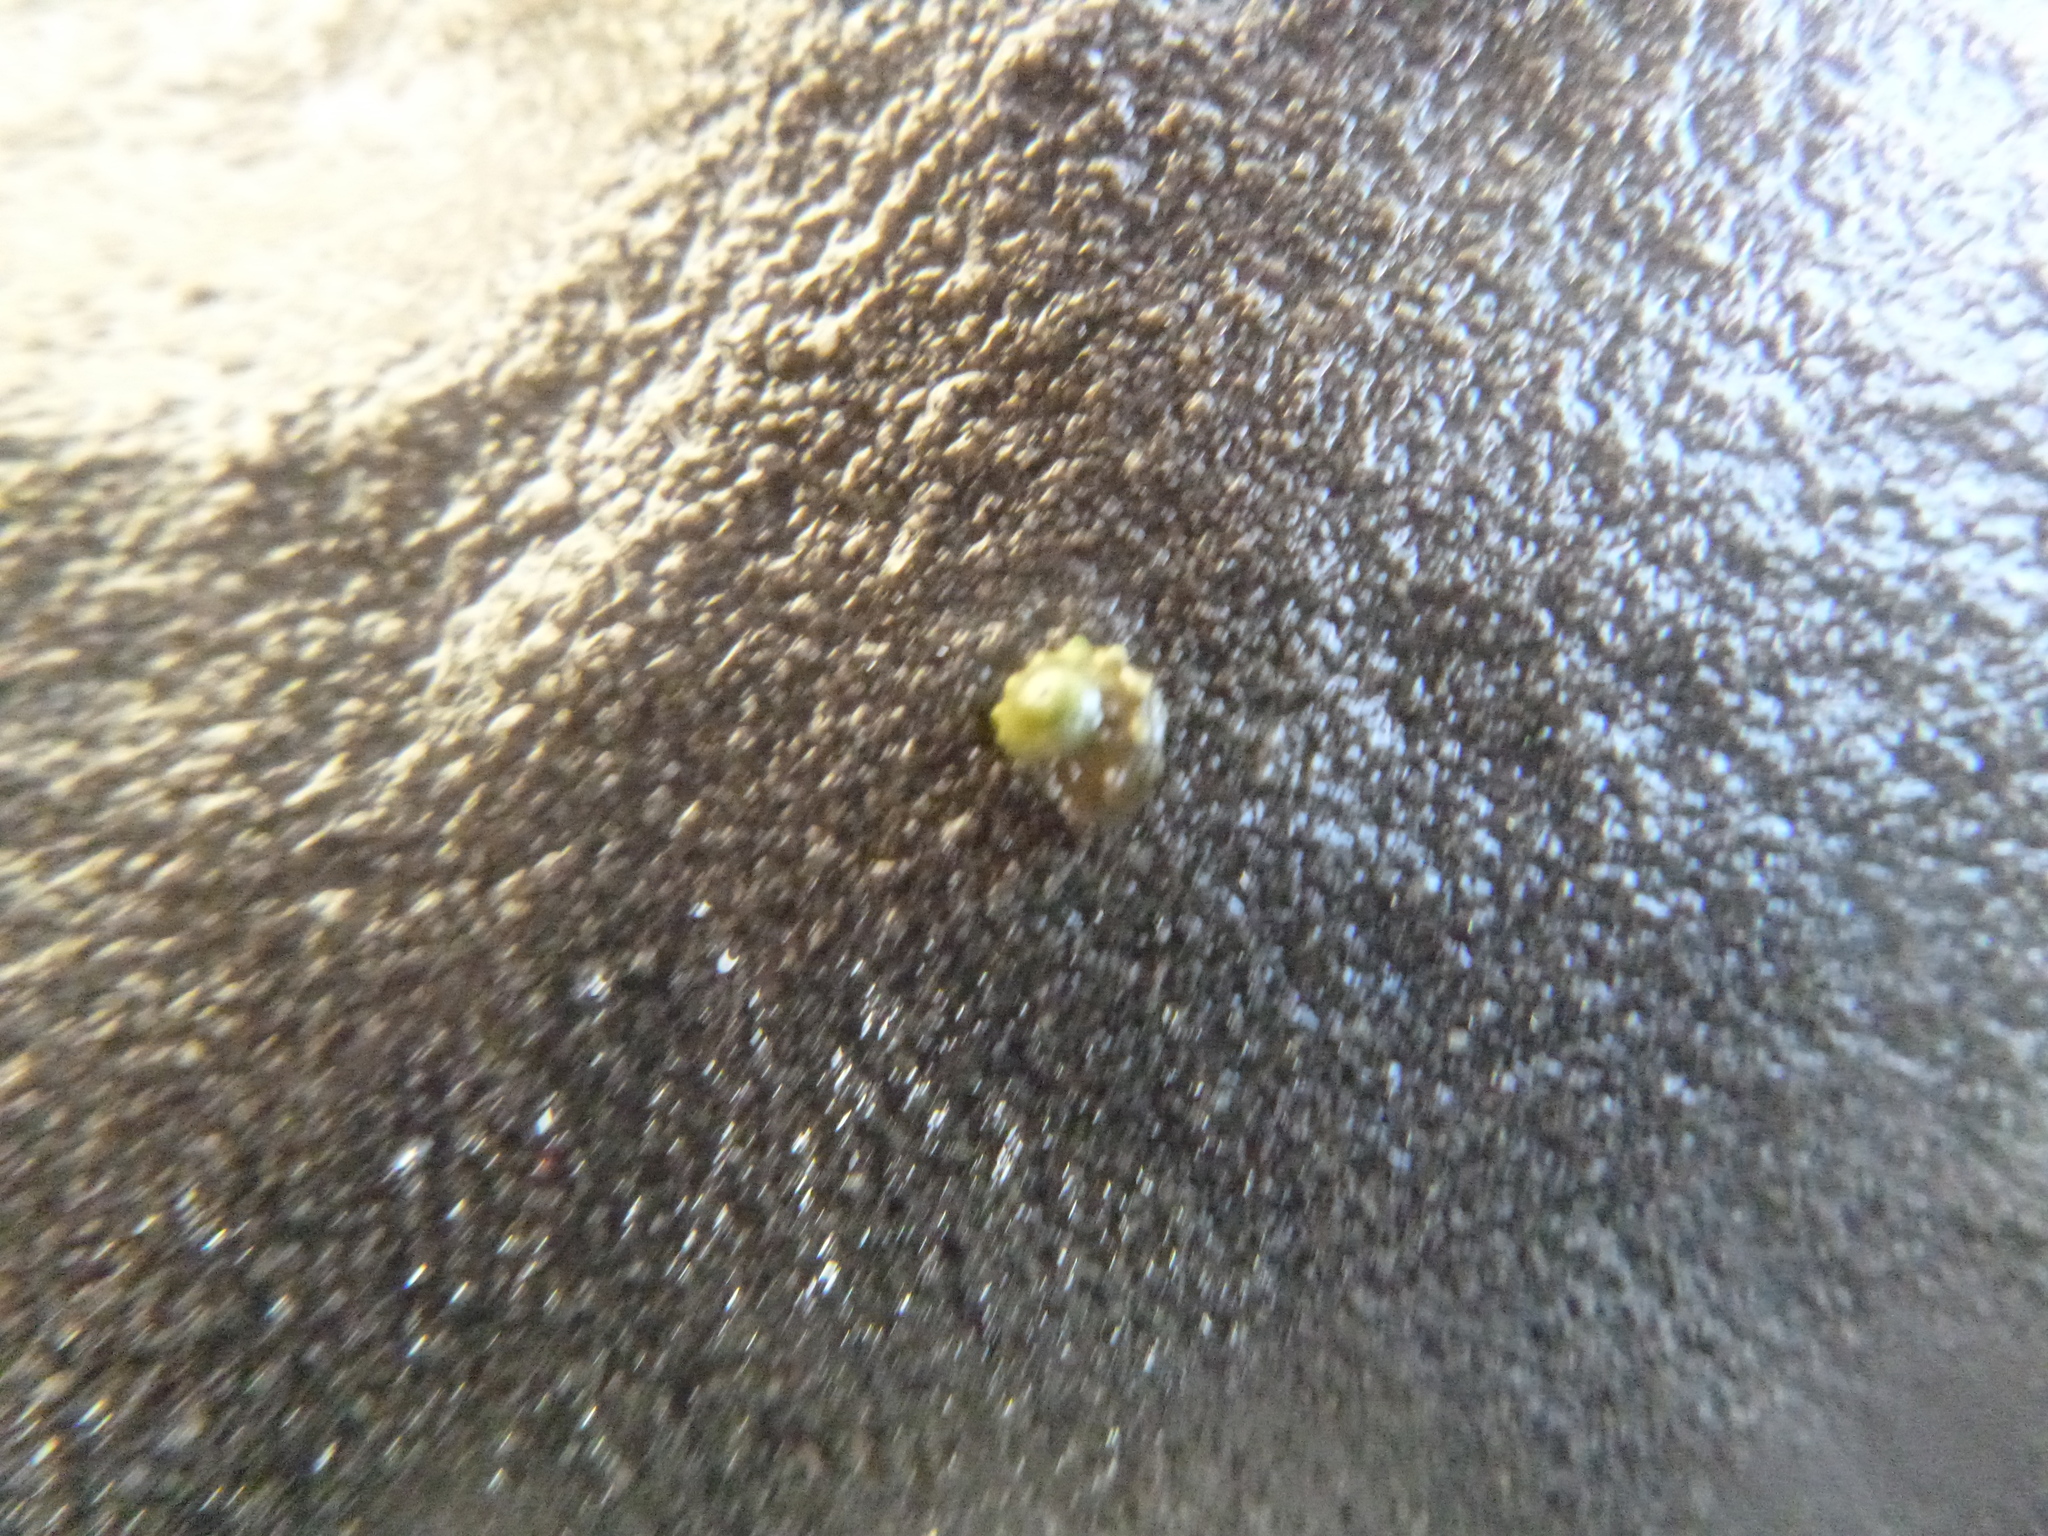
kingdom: Animalia
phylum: Mollusca
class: Gastropoda
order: Trochida
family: Turbinidae
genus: Cookia
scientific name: Cookia sulcata
